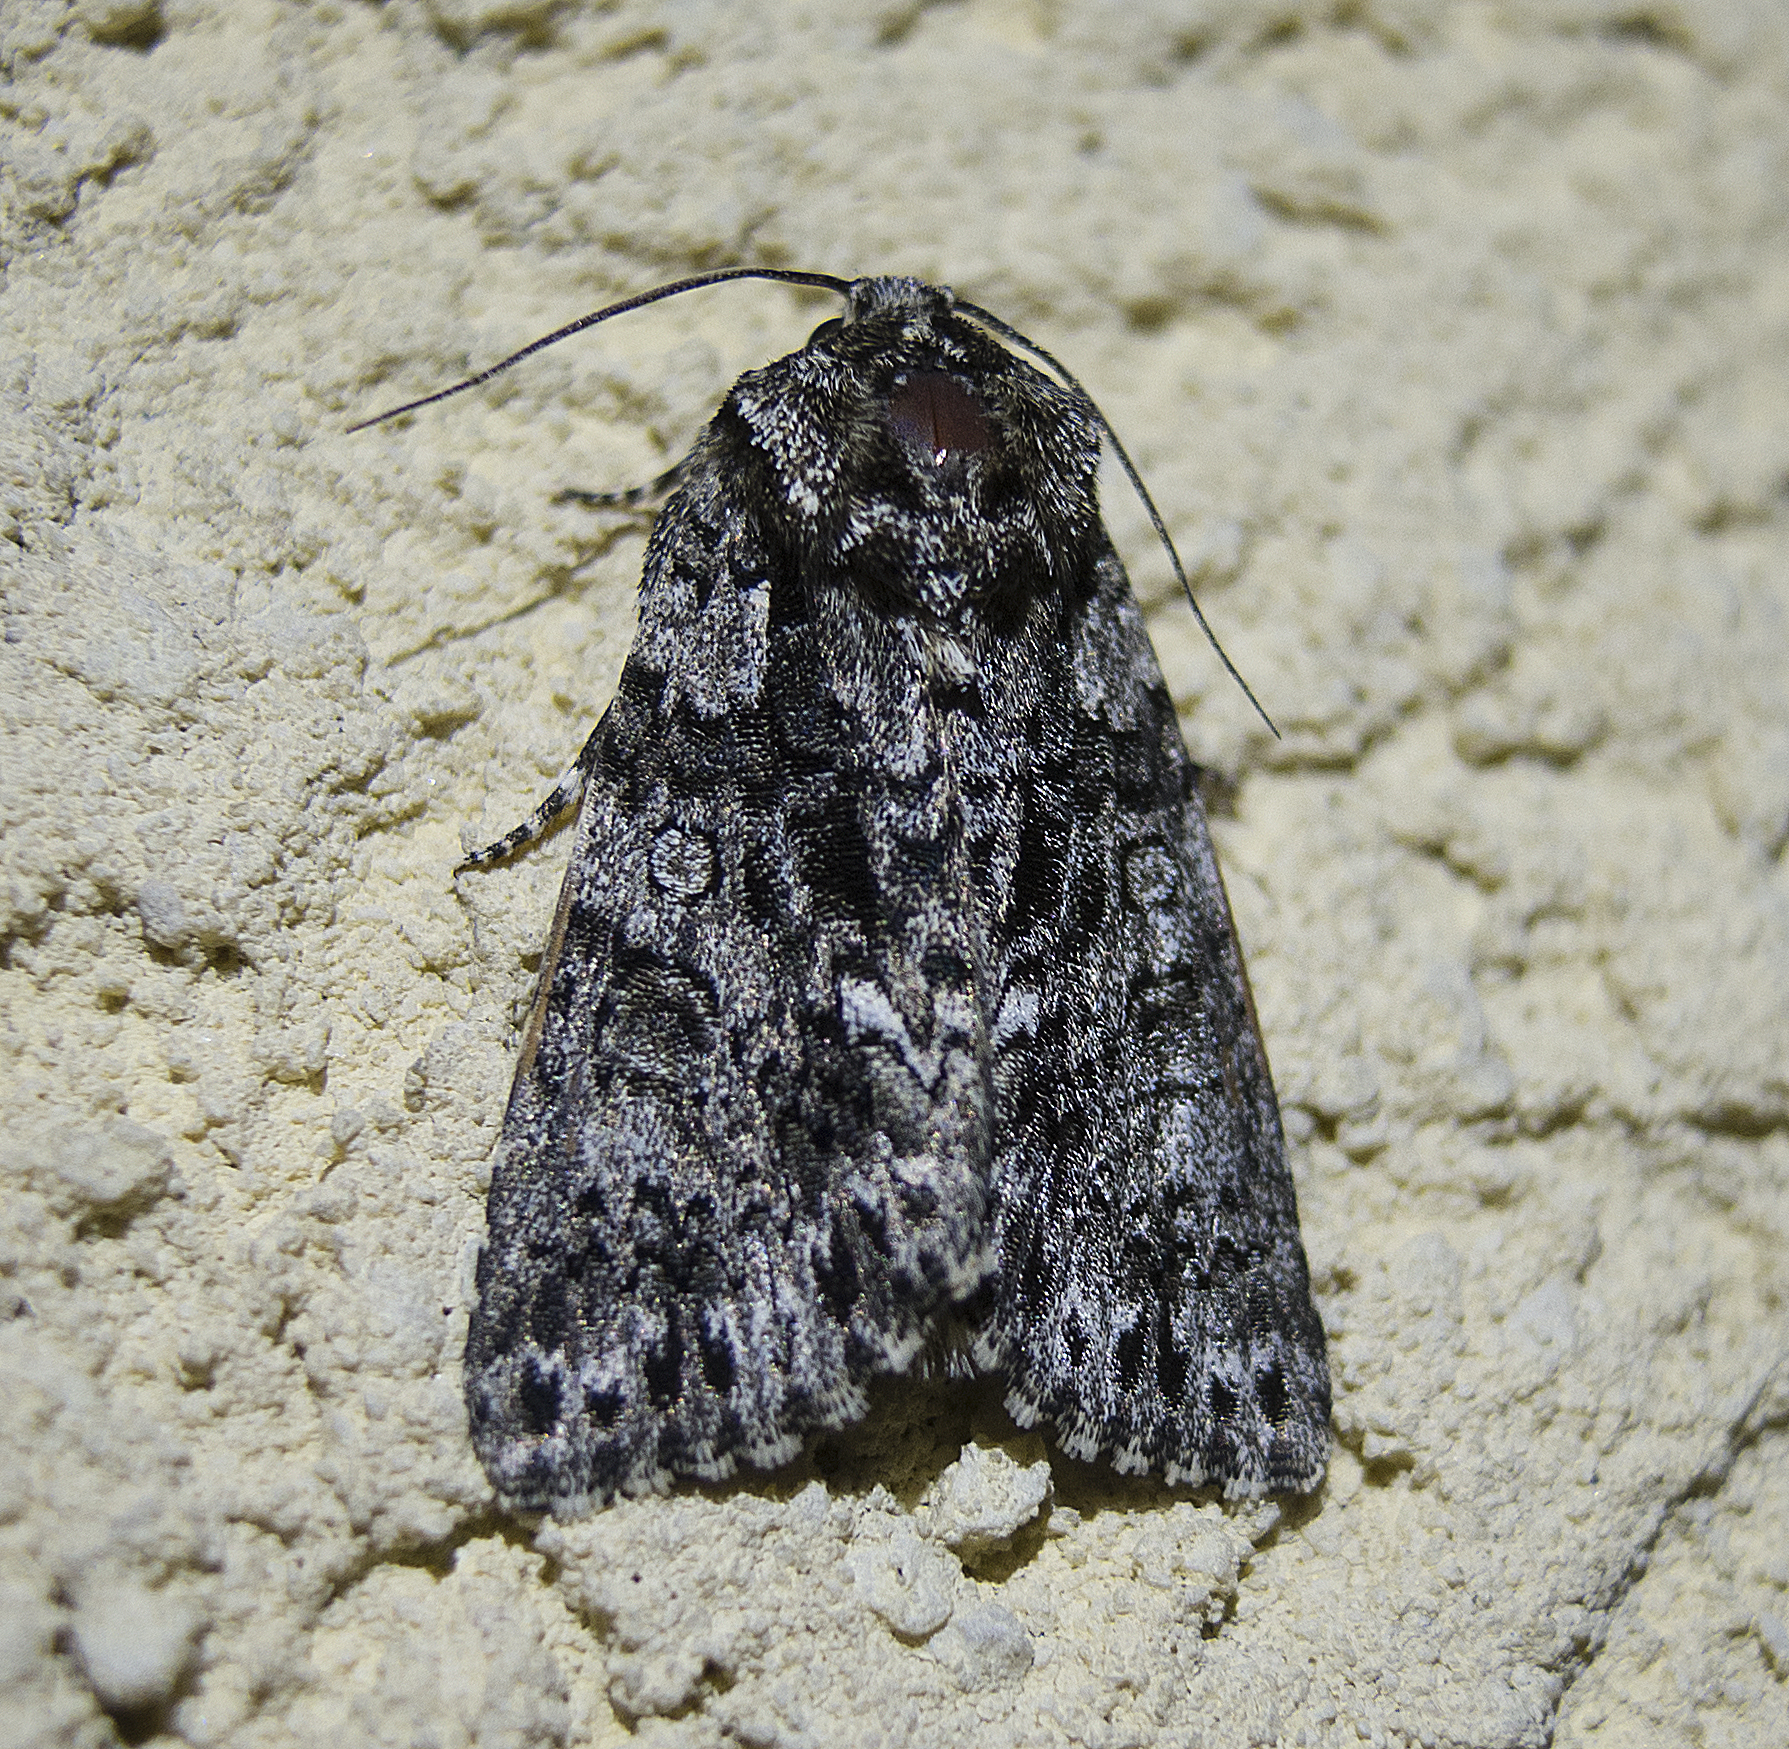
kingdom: Animalia
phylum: Arthropoda
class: Insecta
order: Lepidoptera
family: Noctuidae
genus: Acronicta
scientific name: Acronicta rumicis
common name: Knot grass
